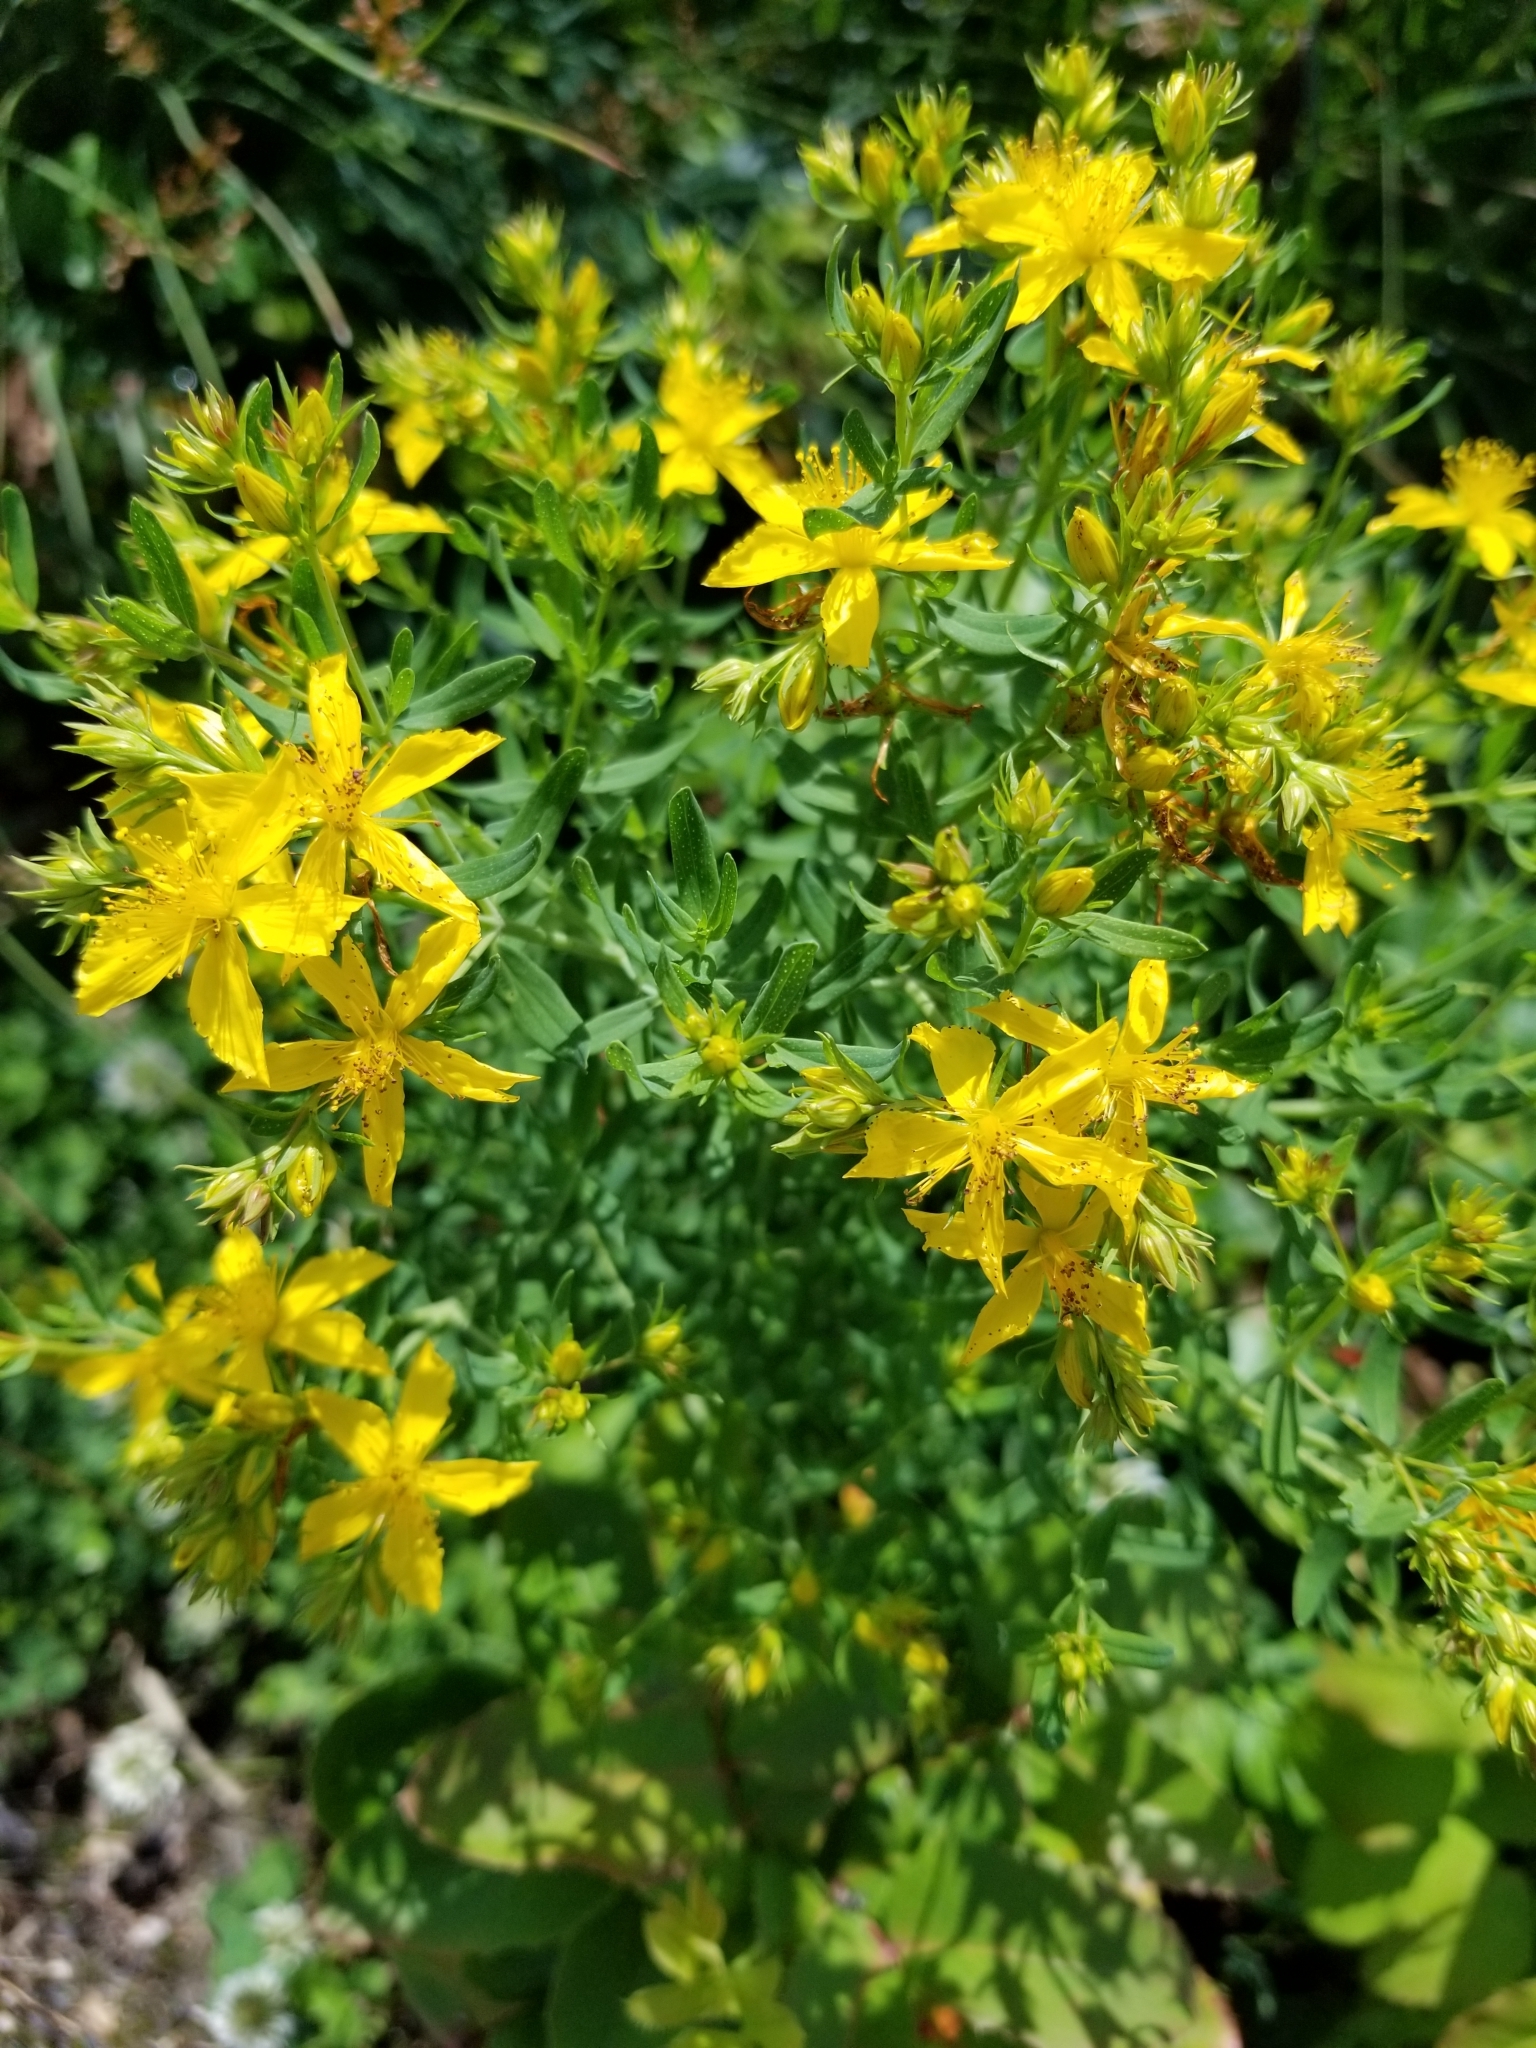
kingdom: Plantae
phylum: Tracheophyta
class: Magnoliopsida
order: Malpighiales
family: Hypericaceae
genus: Hypericum
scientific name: Hypericum perforatum
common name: Common st. johnswort
